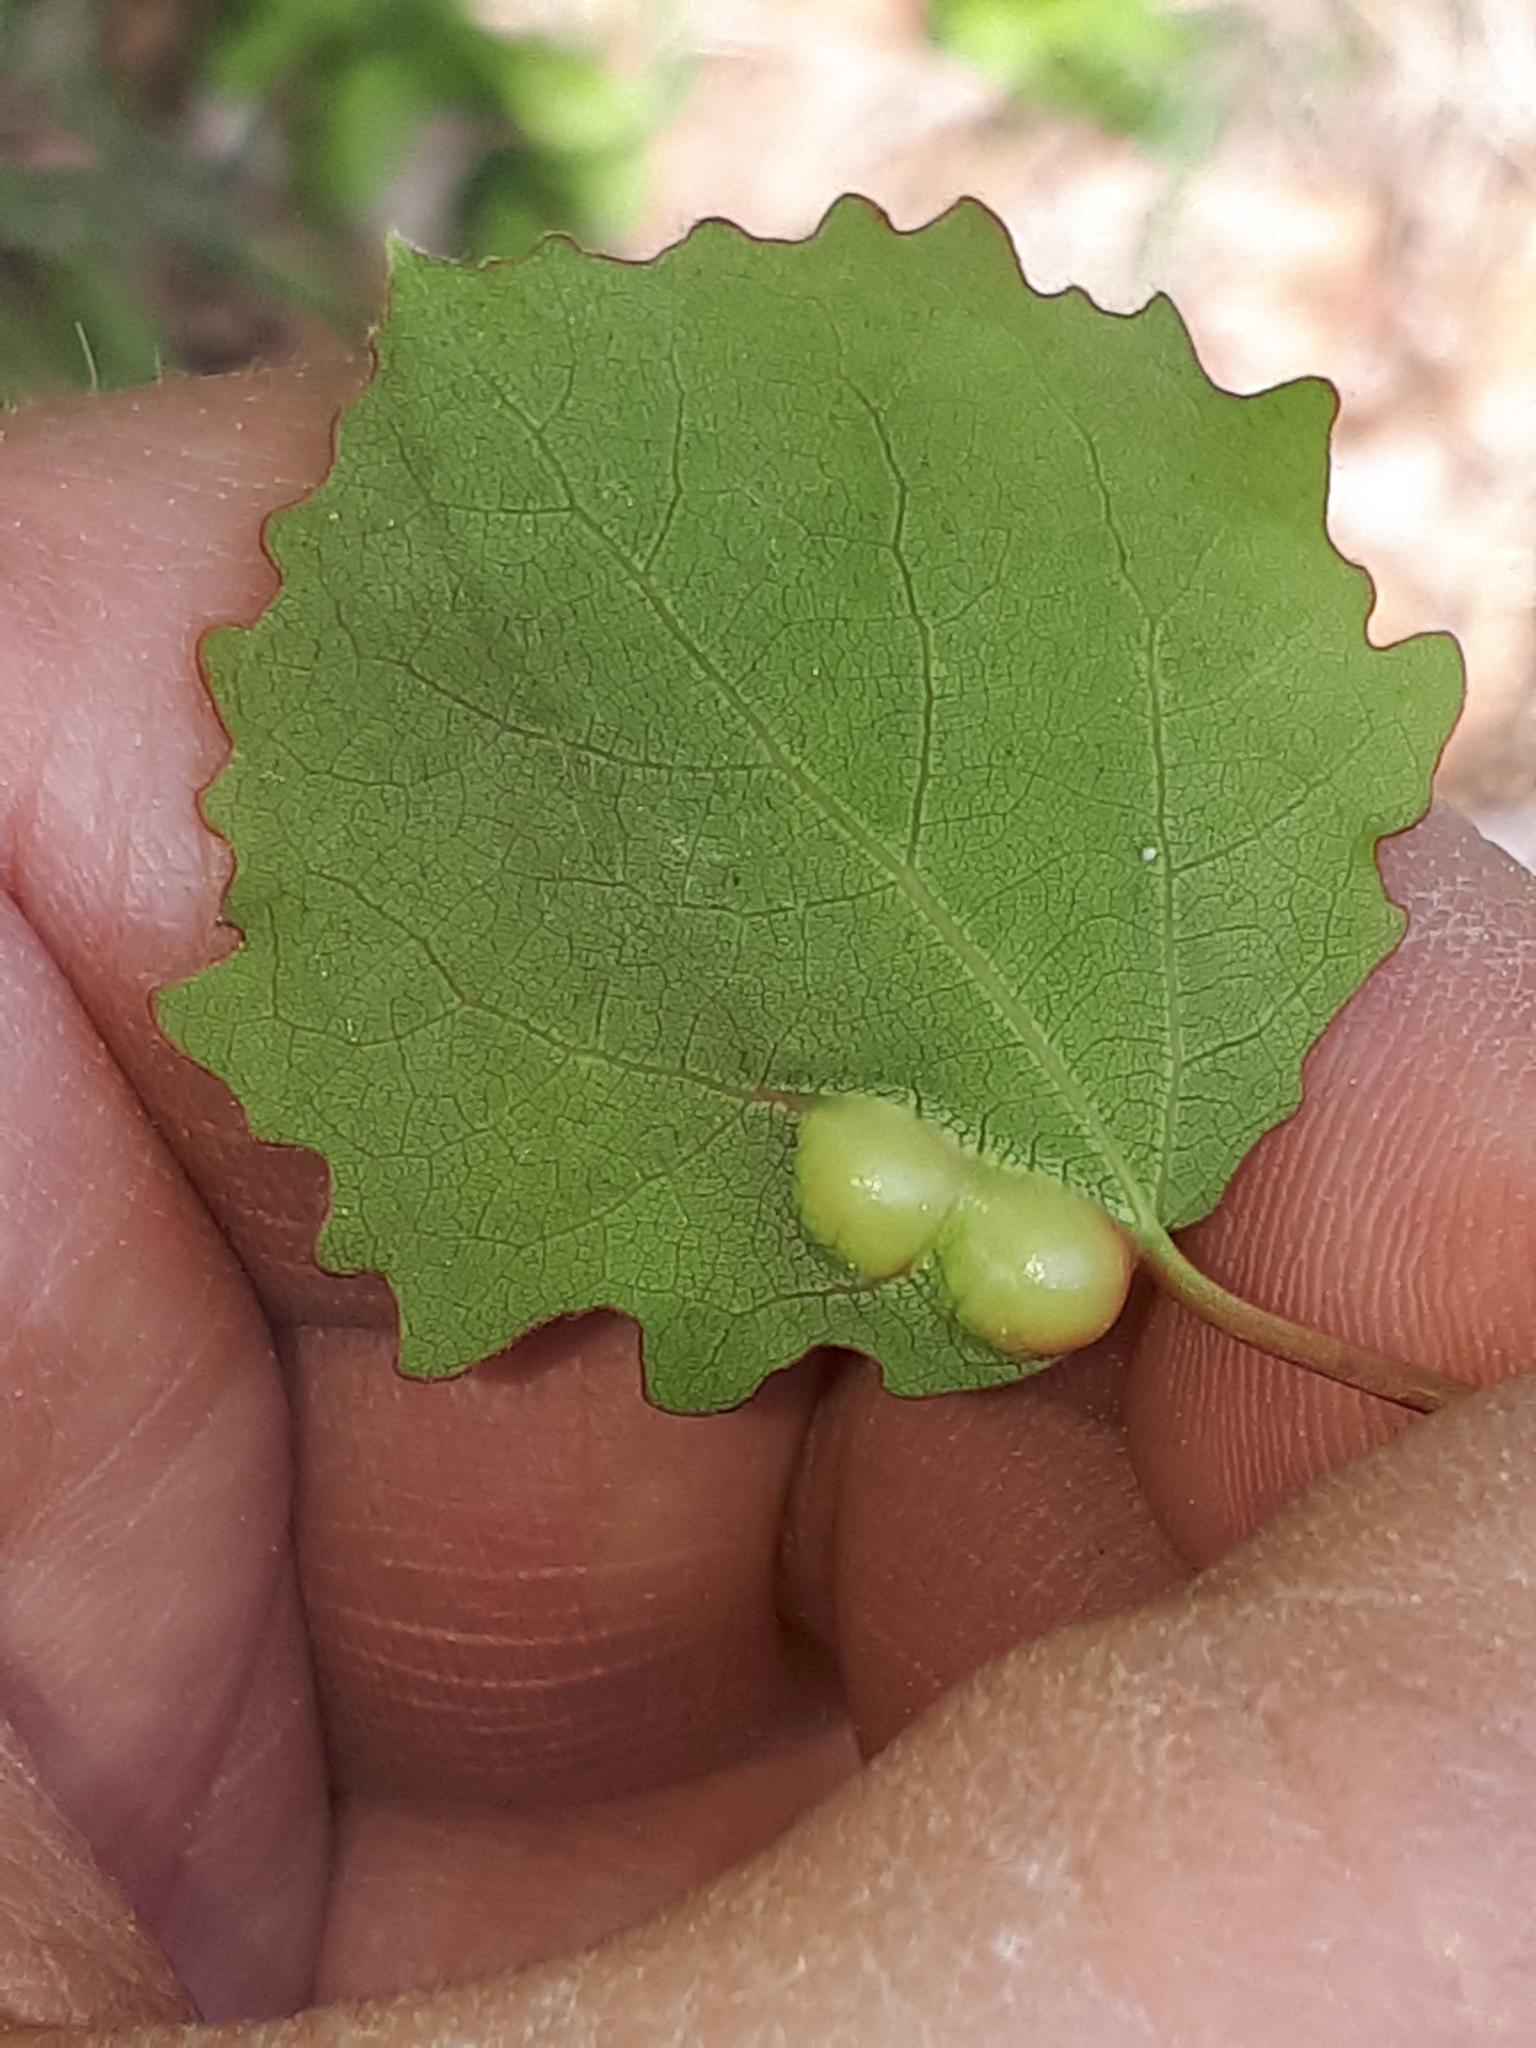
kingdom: Animalia
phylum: Arthropoda
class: Insecta
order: Diptera
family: Cecidomyiidae
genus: Harmandiola
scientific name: Harmandiola cavernosa
